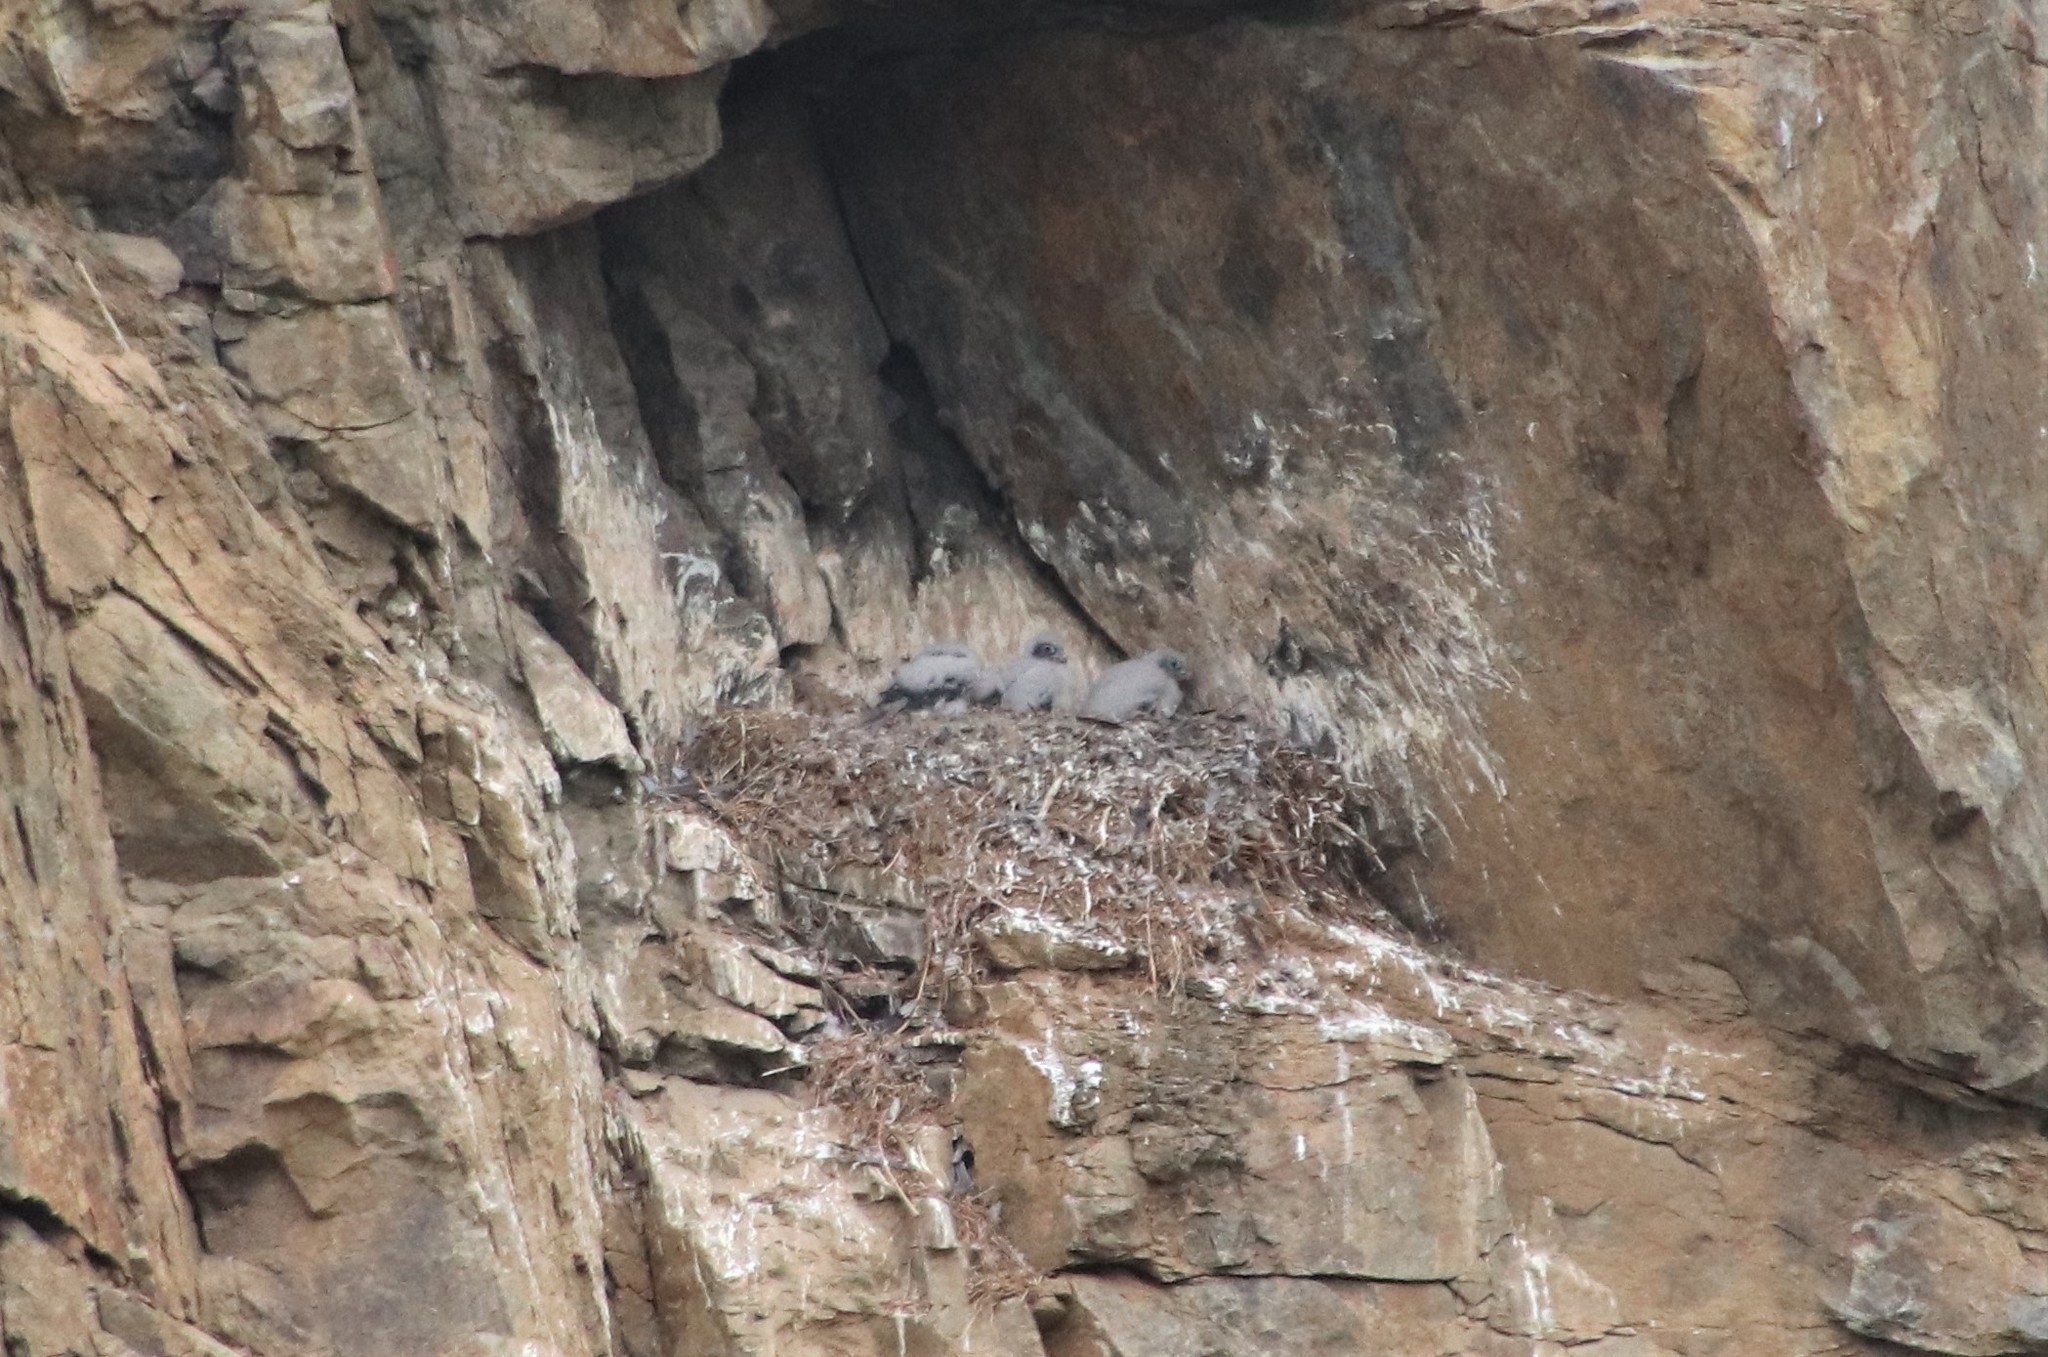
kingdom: Animalia
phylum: Chordata
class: Aves
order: Falconiformes
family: Falconidae
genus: Falco
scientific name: Falco peregrinus
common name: Peregrine falcon
